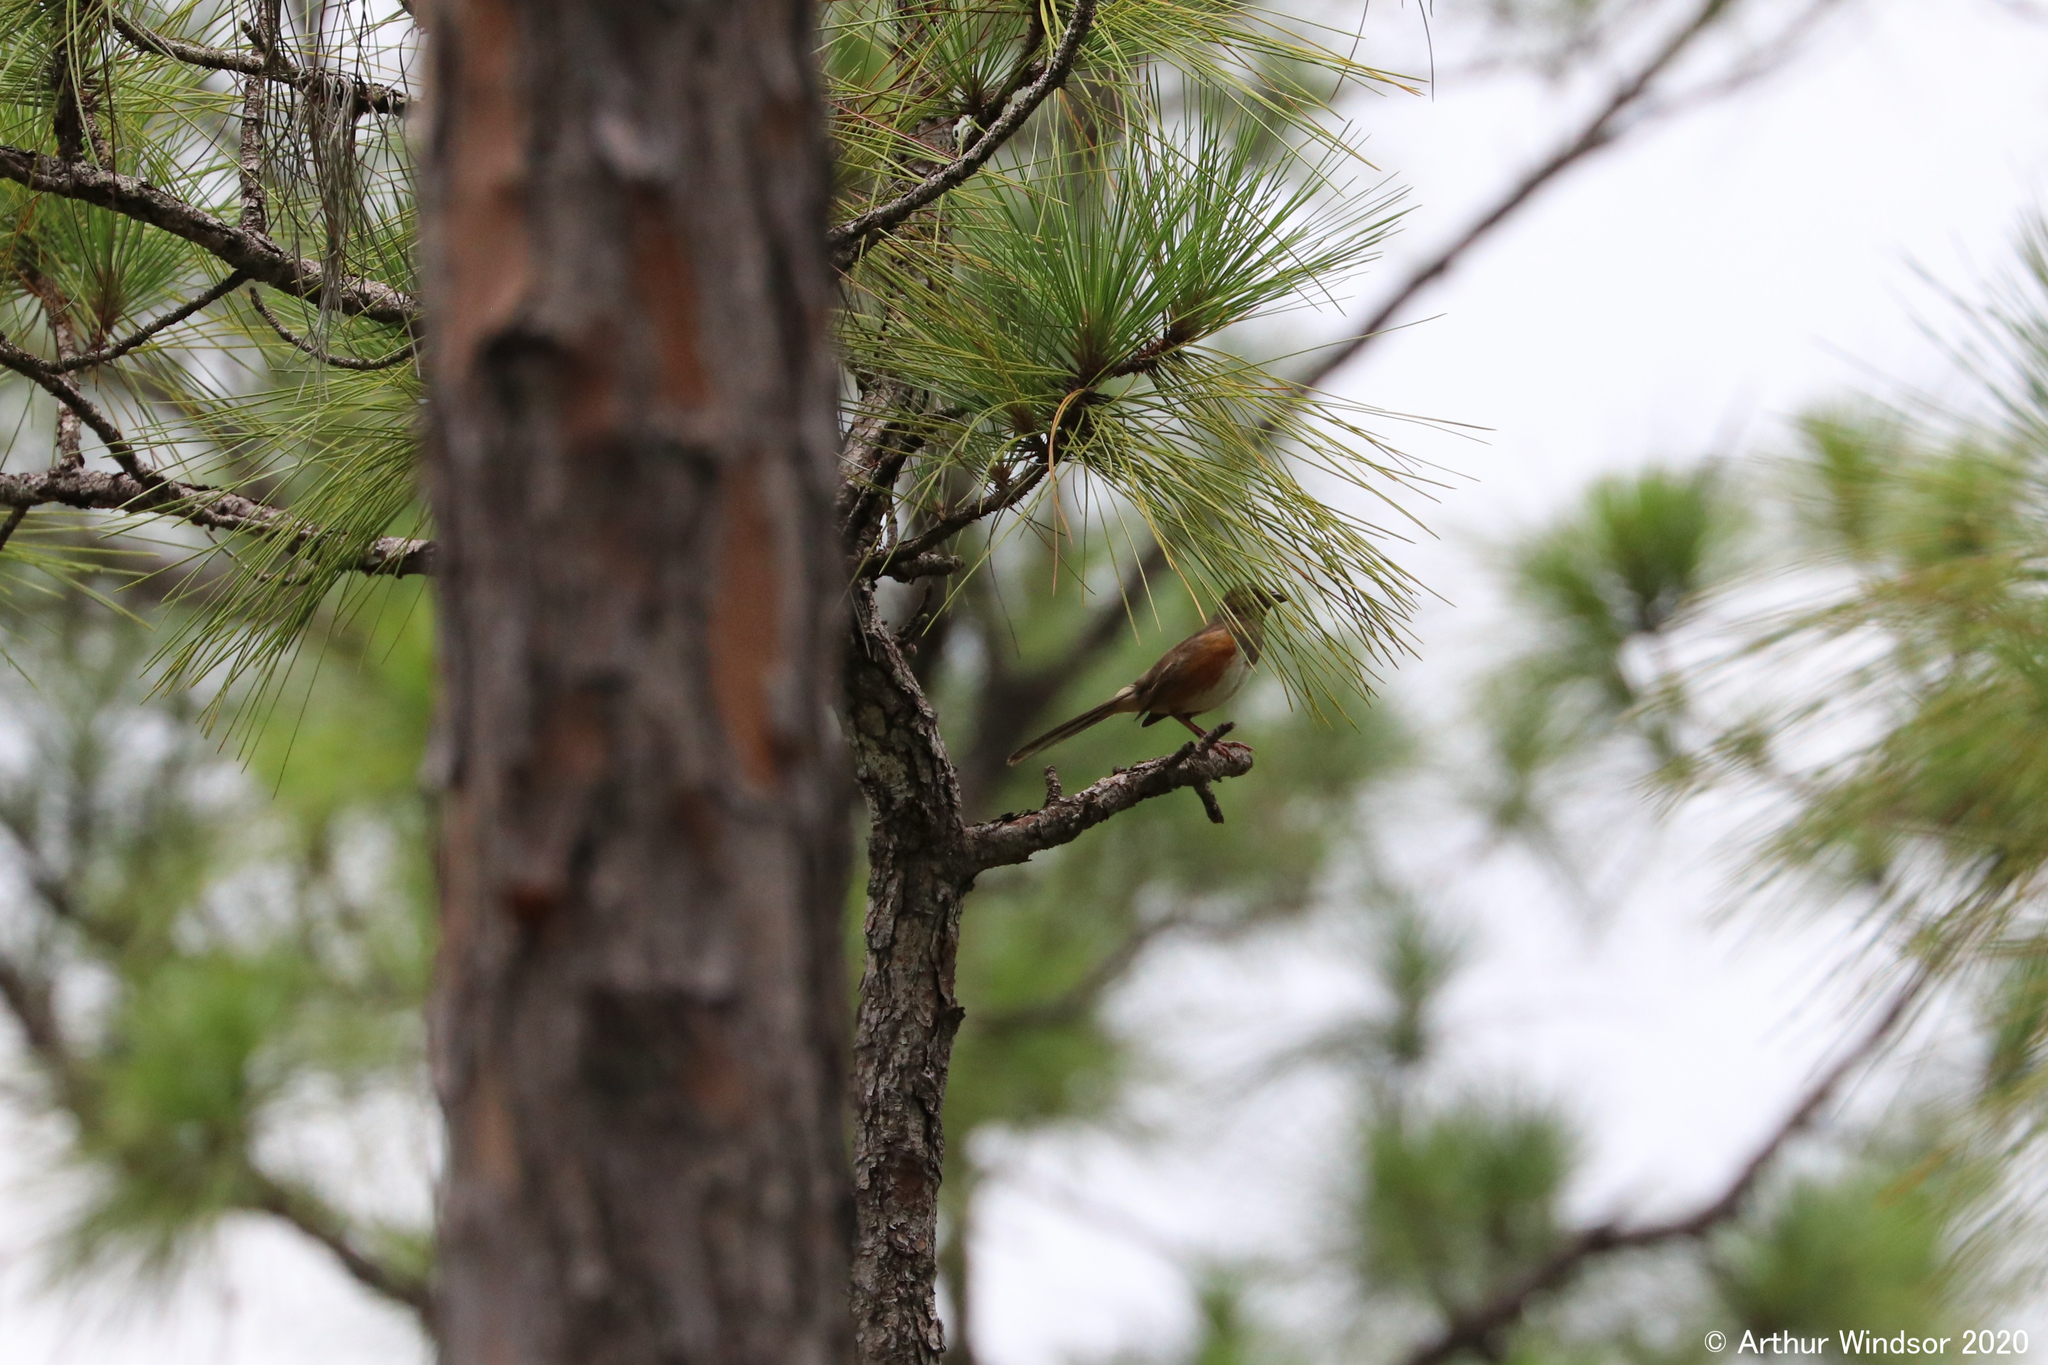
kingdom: Animalia
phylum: Chordata
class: Aves
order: Passeriformes
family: Passerellidae
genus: Pipilo
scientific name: Pipilo erythrophthalmus
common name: Eastern towhee
